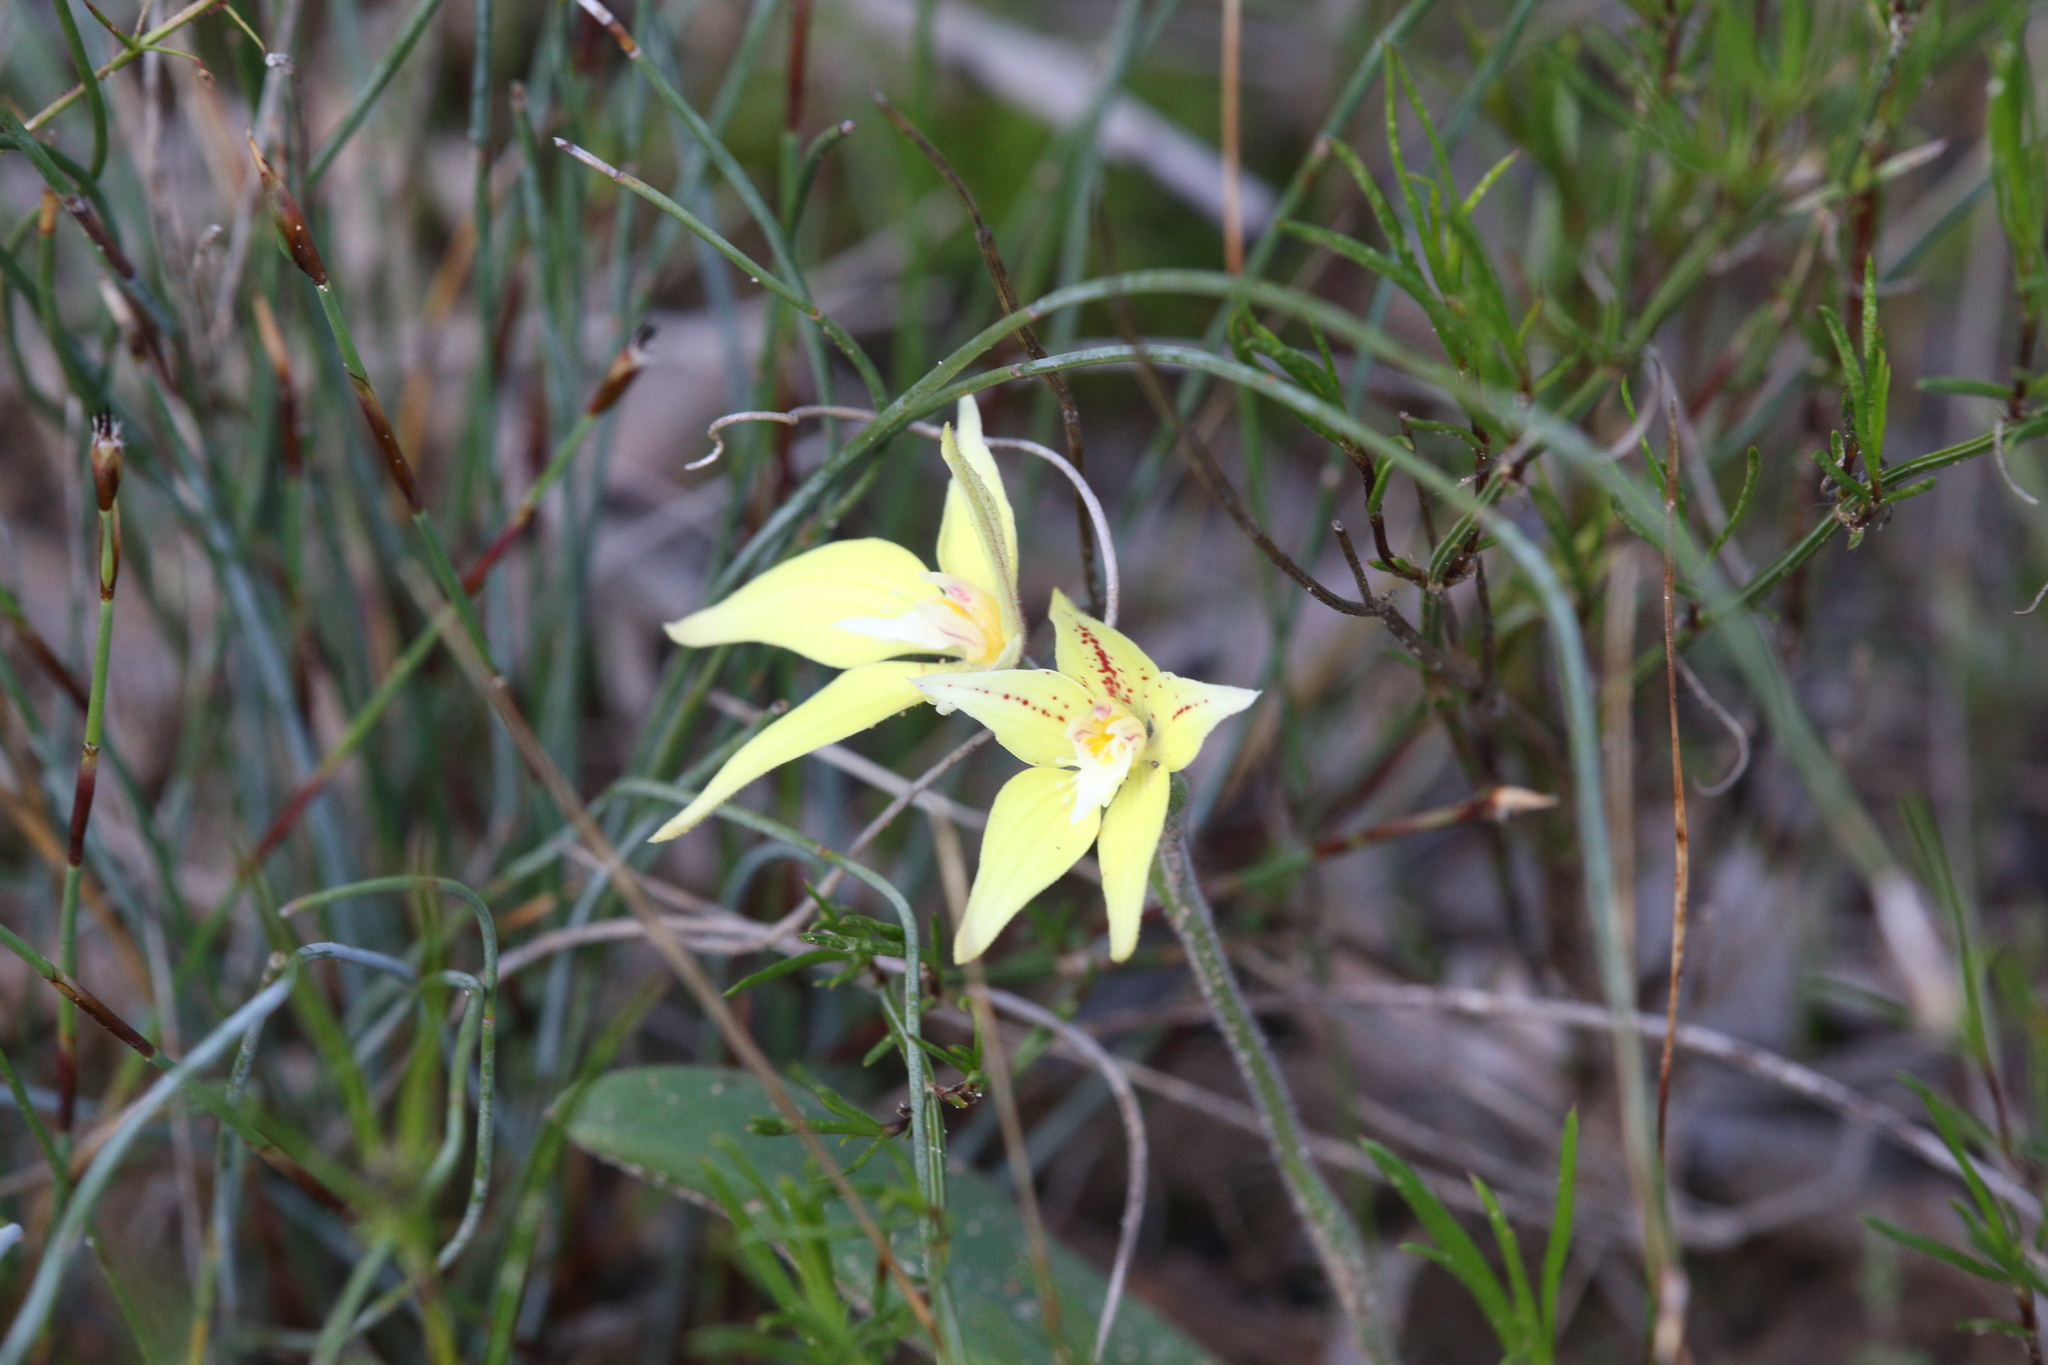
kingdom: Plantae
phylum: Tracheophyta
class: Liliopsida
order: Asparagales
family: Orchidaceae
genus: Caladenia
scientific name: Caladenia flava
